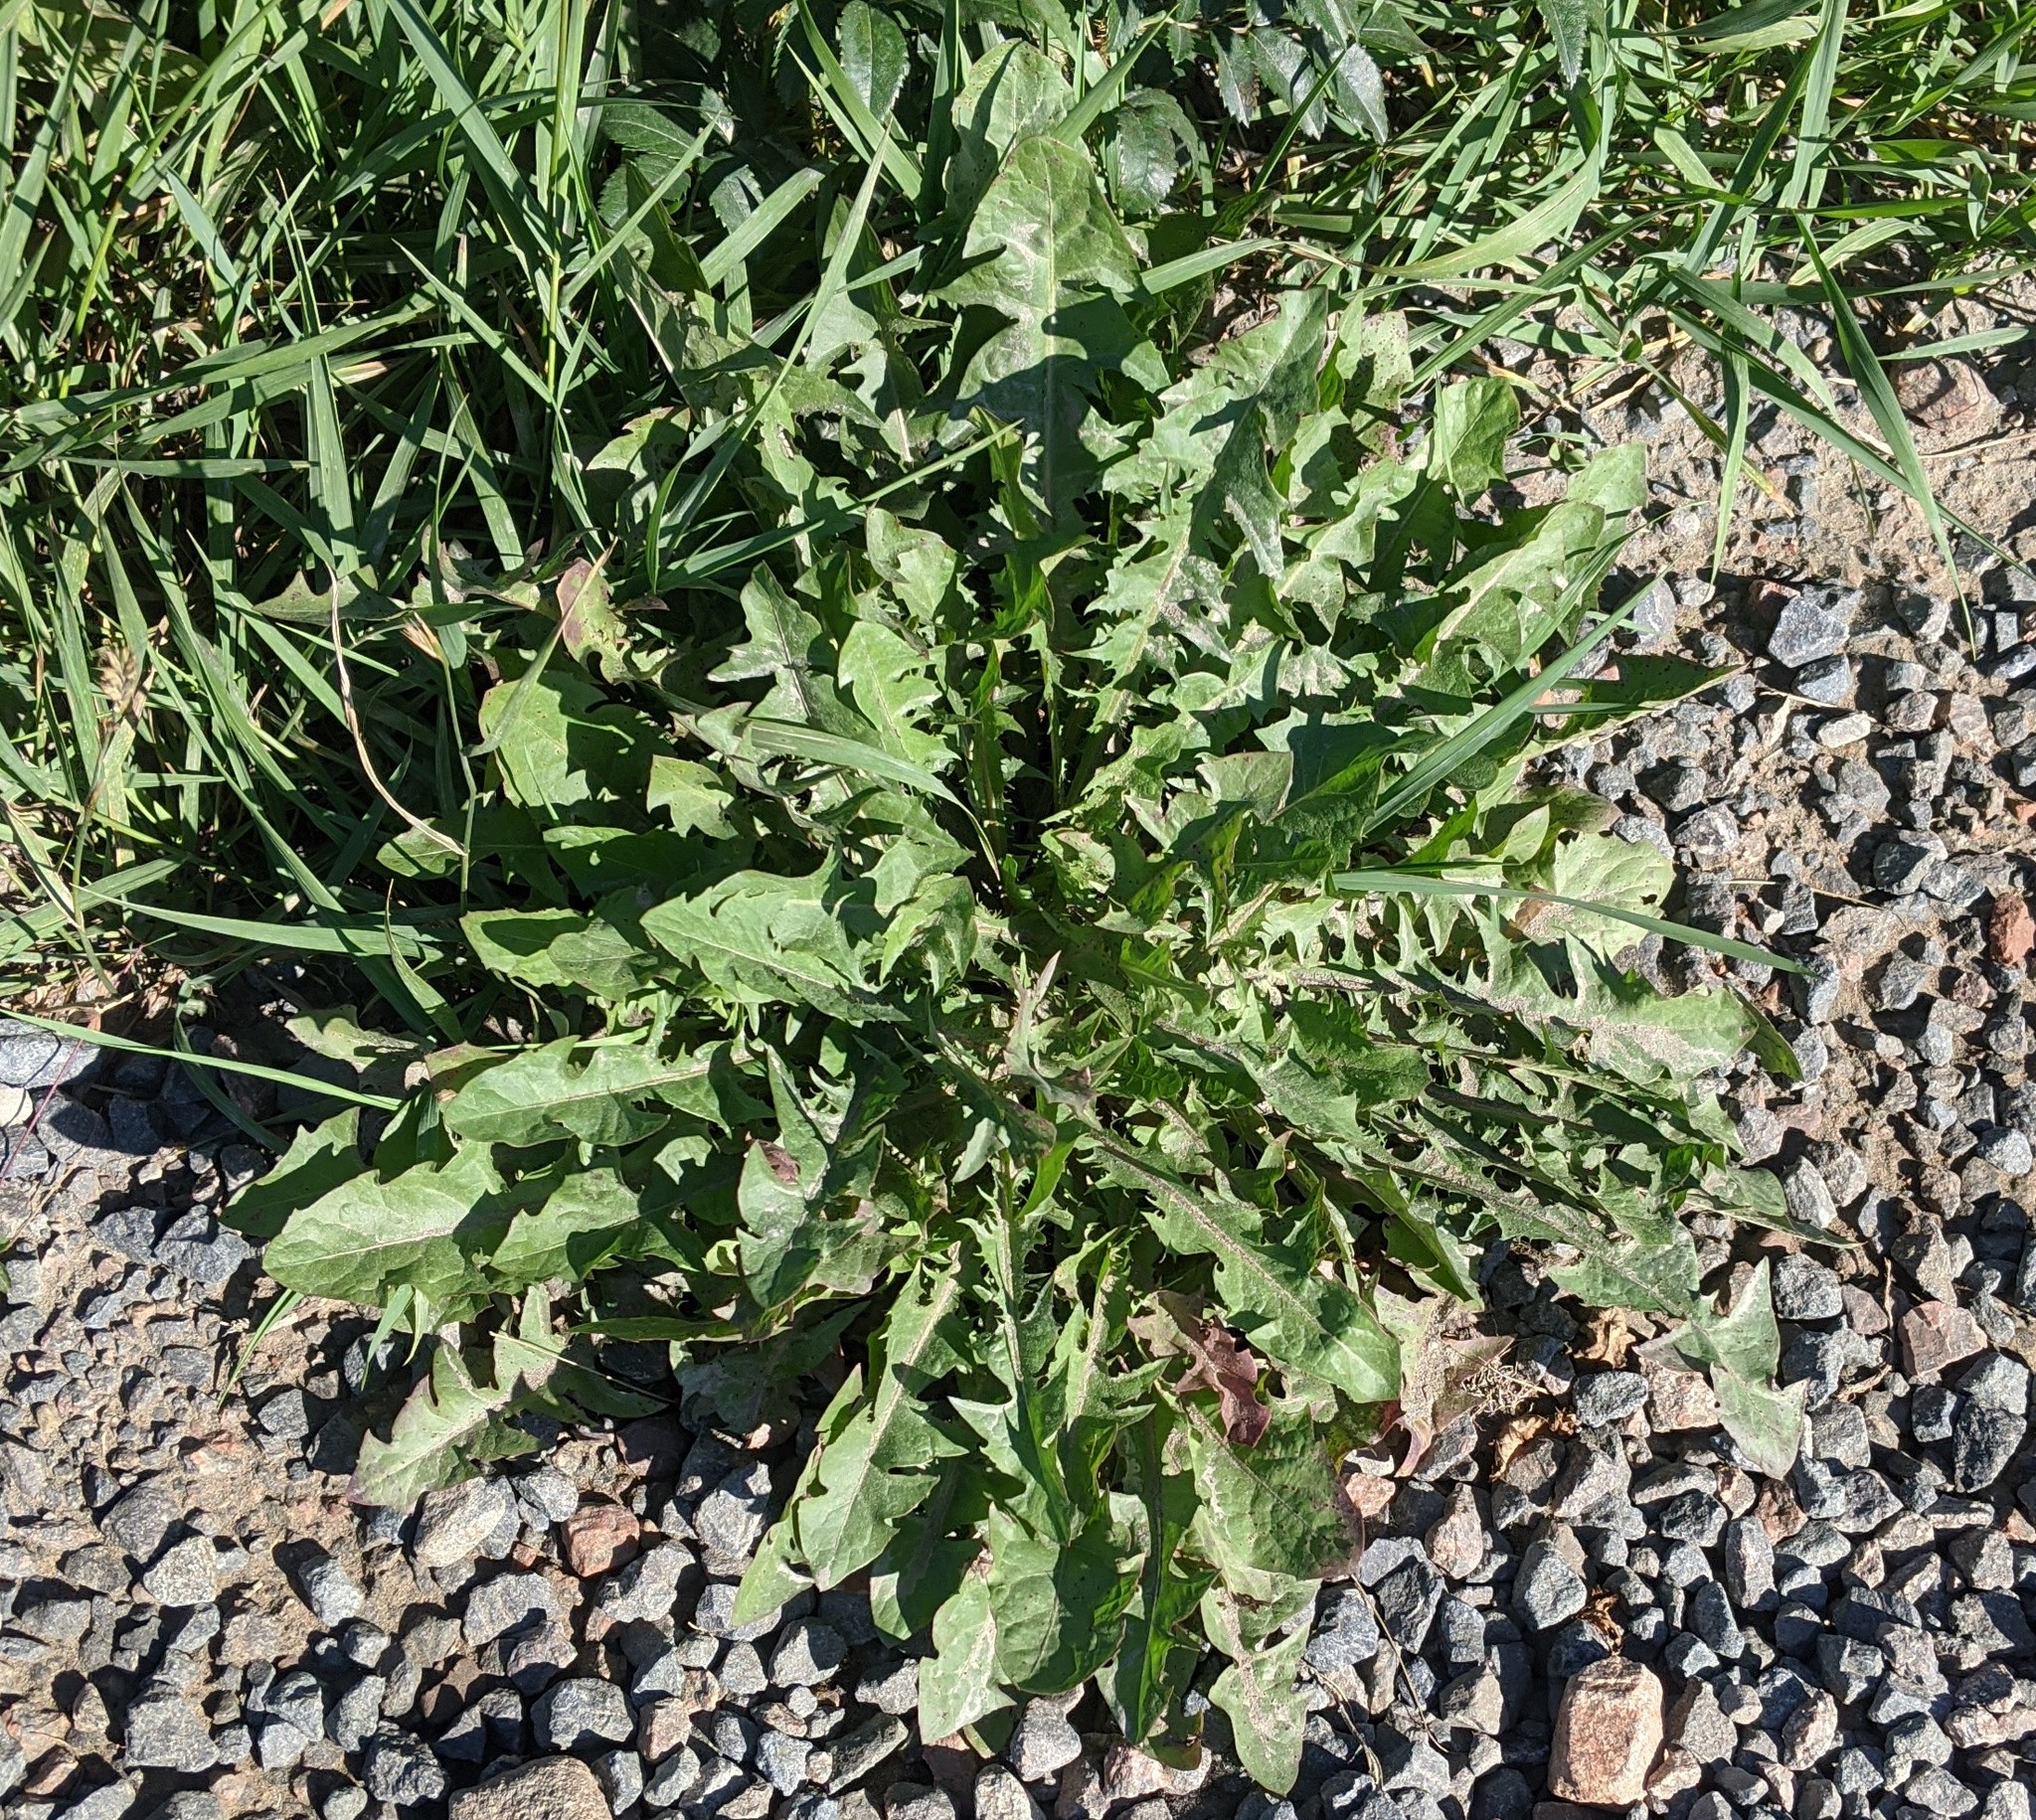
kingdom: Plantae
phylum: Tracheophyta
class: Magnoliopsida
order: Asterales
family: Asteraceae
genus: Taraxacum
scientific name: Taraxacum officinale
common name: Common dandelion
